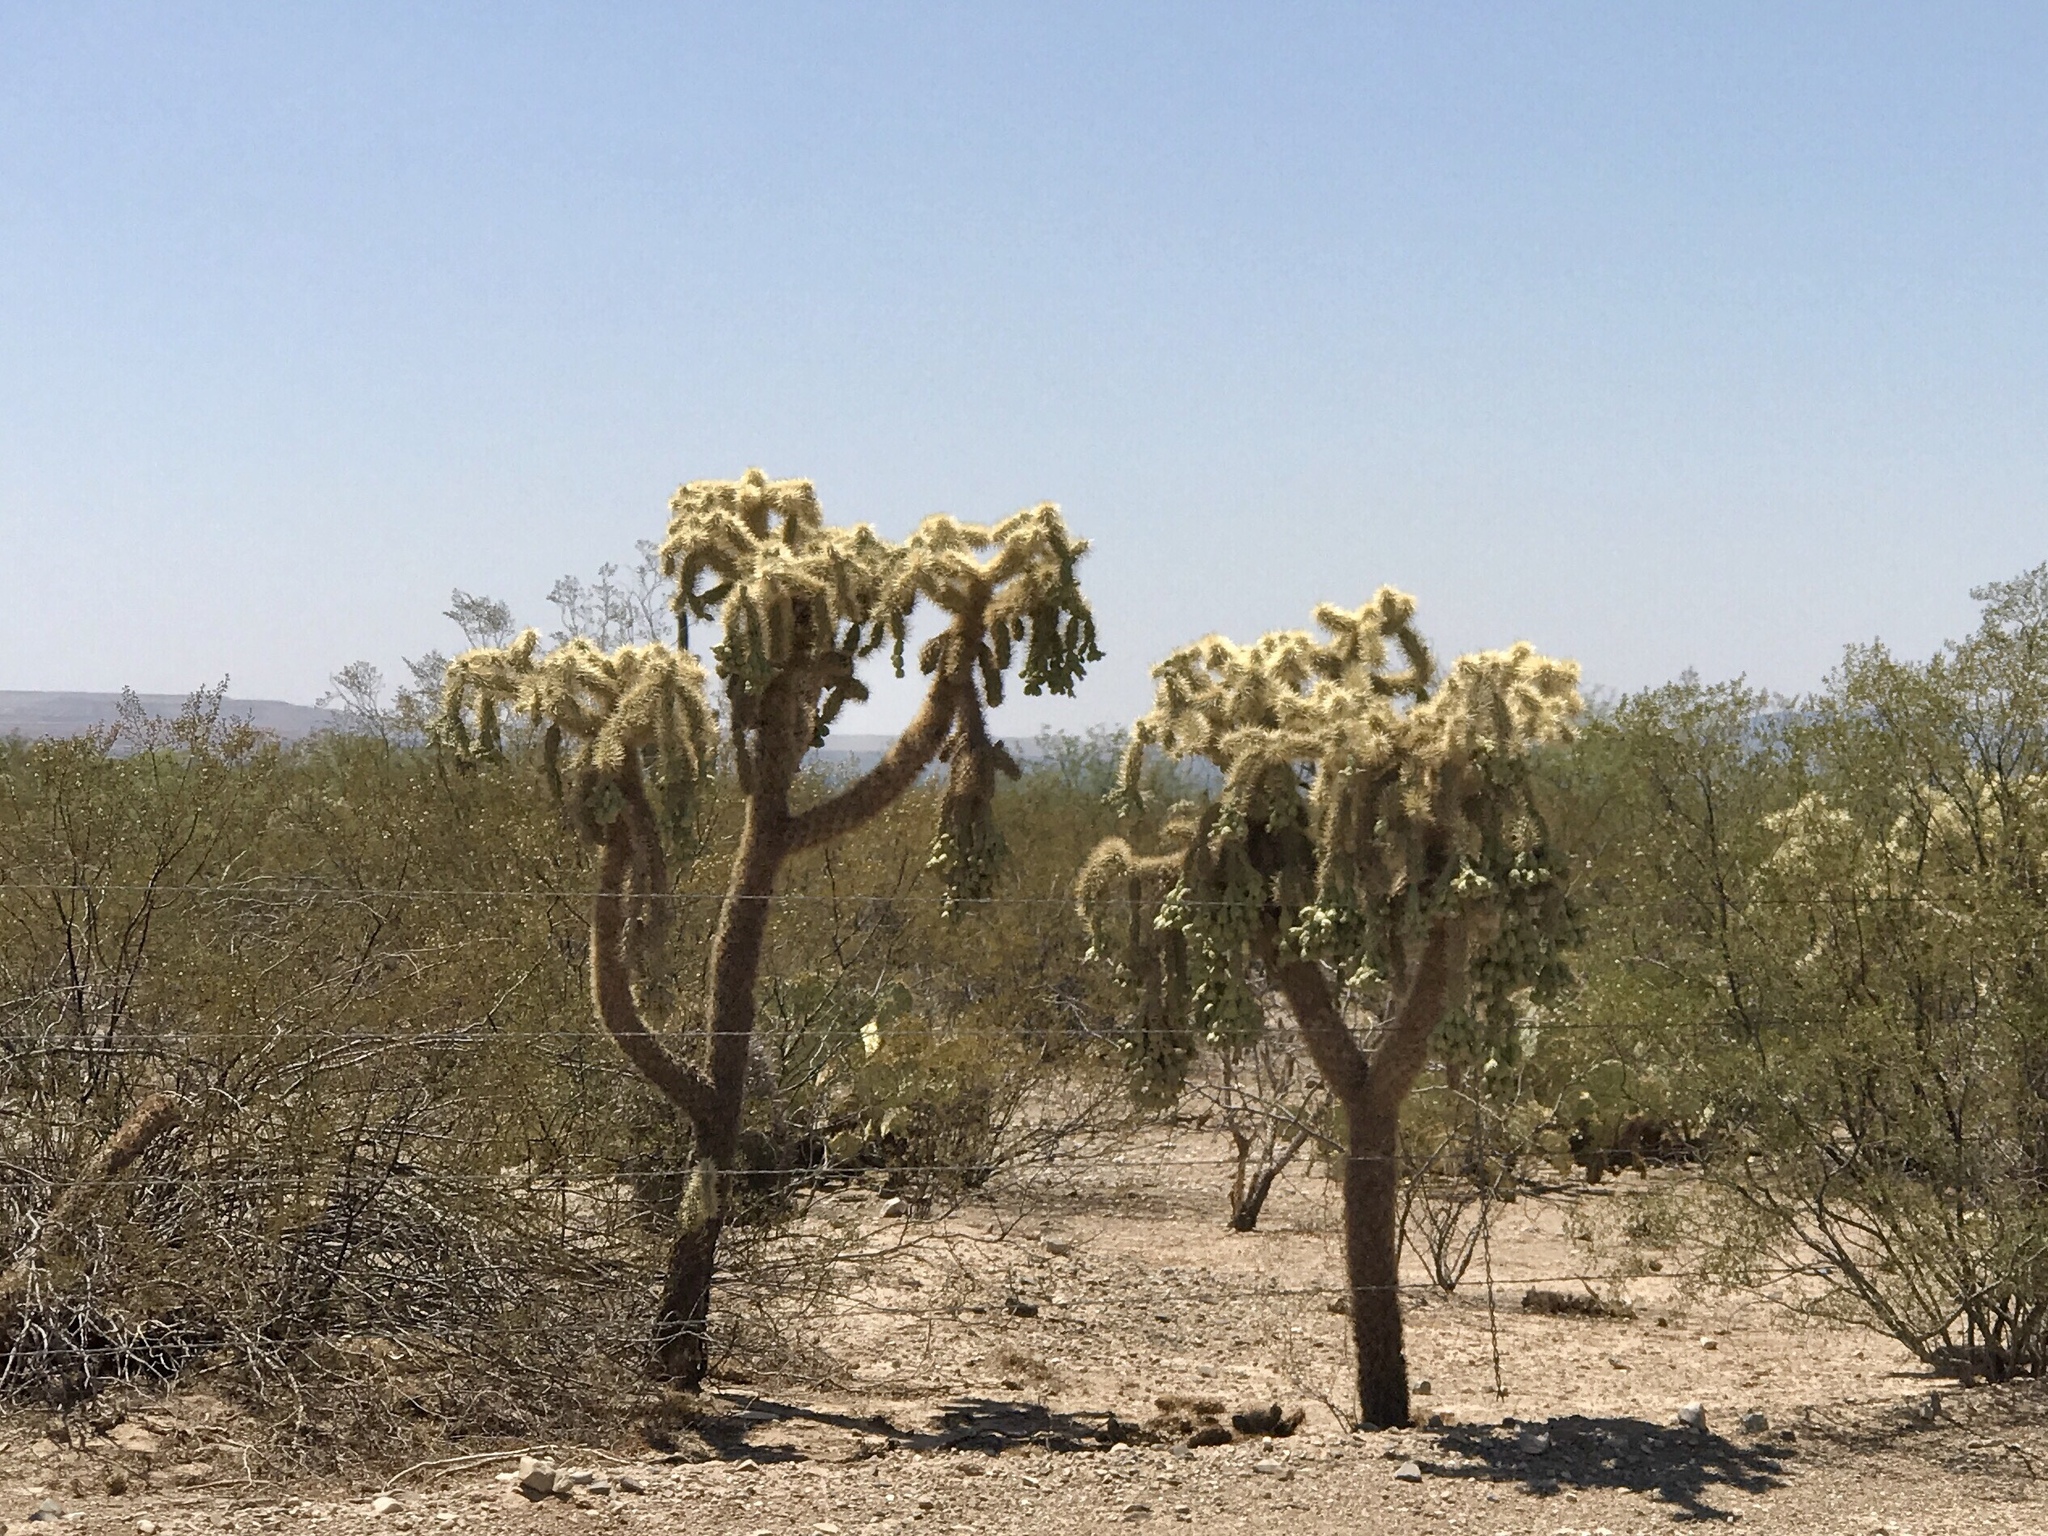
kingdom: Plantae
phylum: Tracheophyta
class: Magnoliopsida
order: Caryophyllales
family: Cactaceae
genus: Cylindropuntia
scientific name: Cylindropuntia fulgida
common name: Jumping cholla
